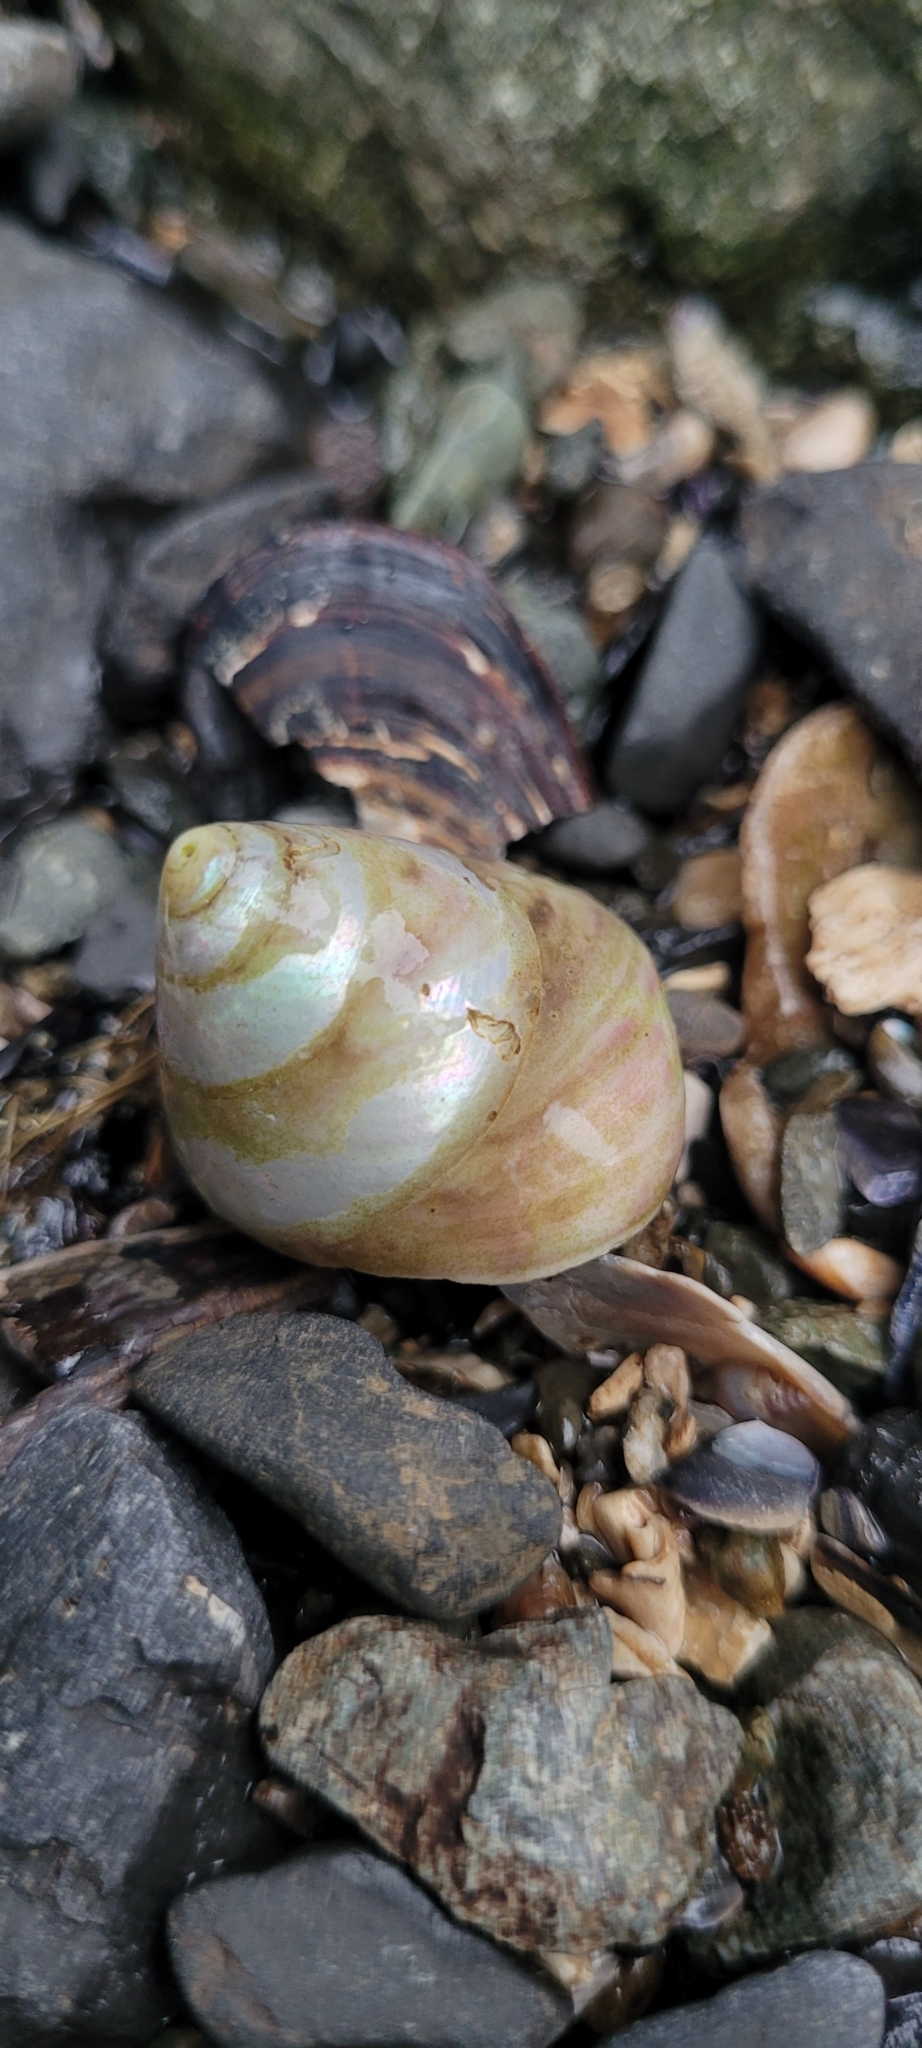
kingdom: Animalia
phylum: Mollusca
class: Gastropoda
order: Trochida
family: Tegulidae
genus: Tegula
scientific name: Tegula pulligo
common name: Brown turban
